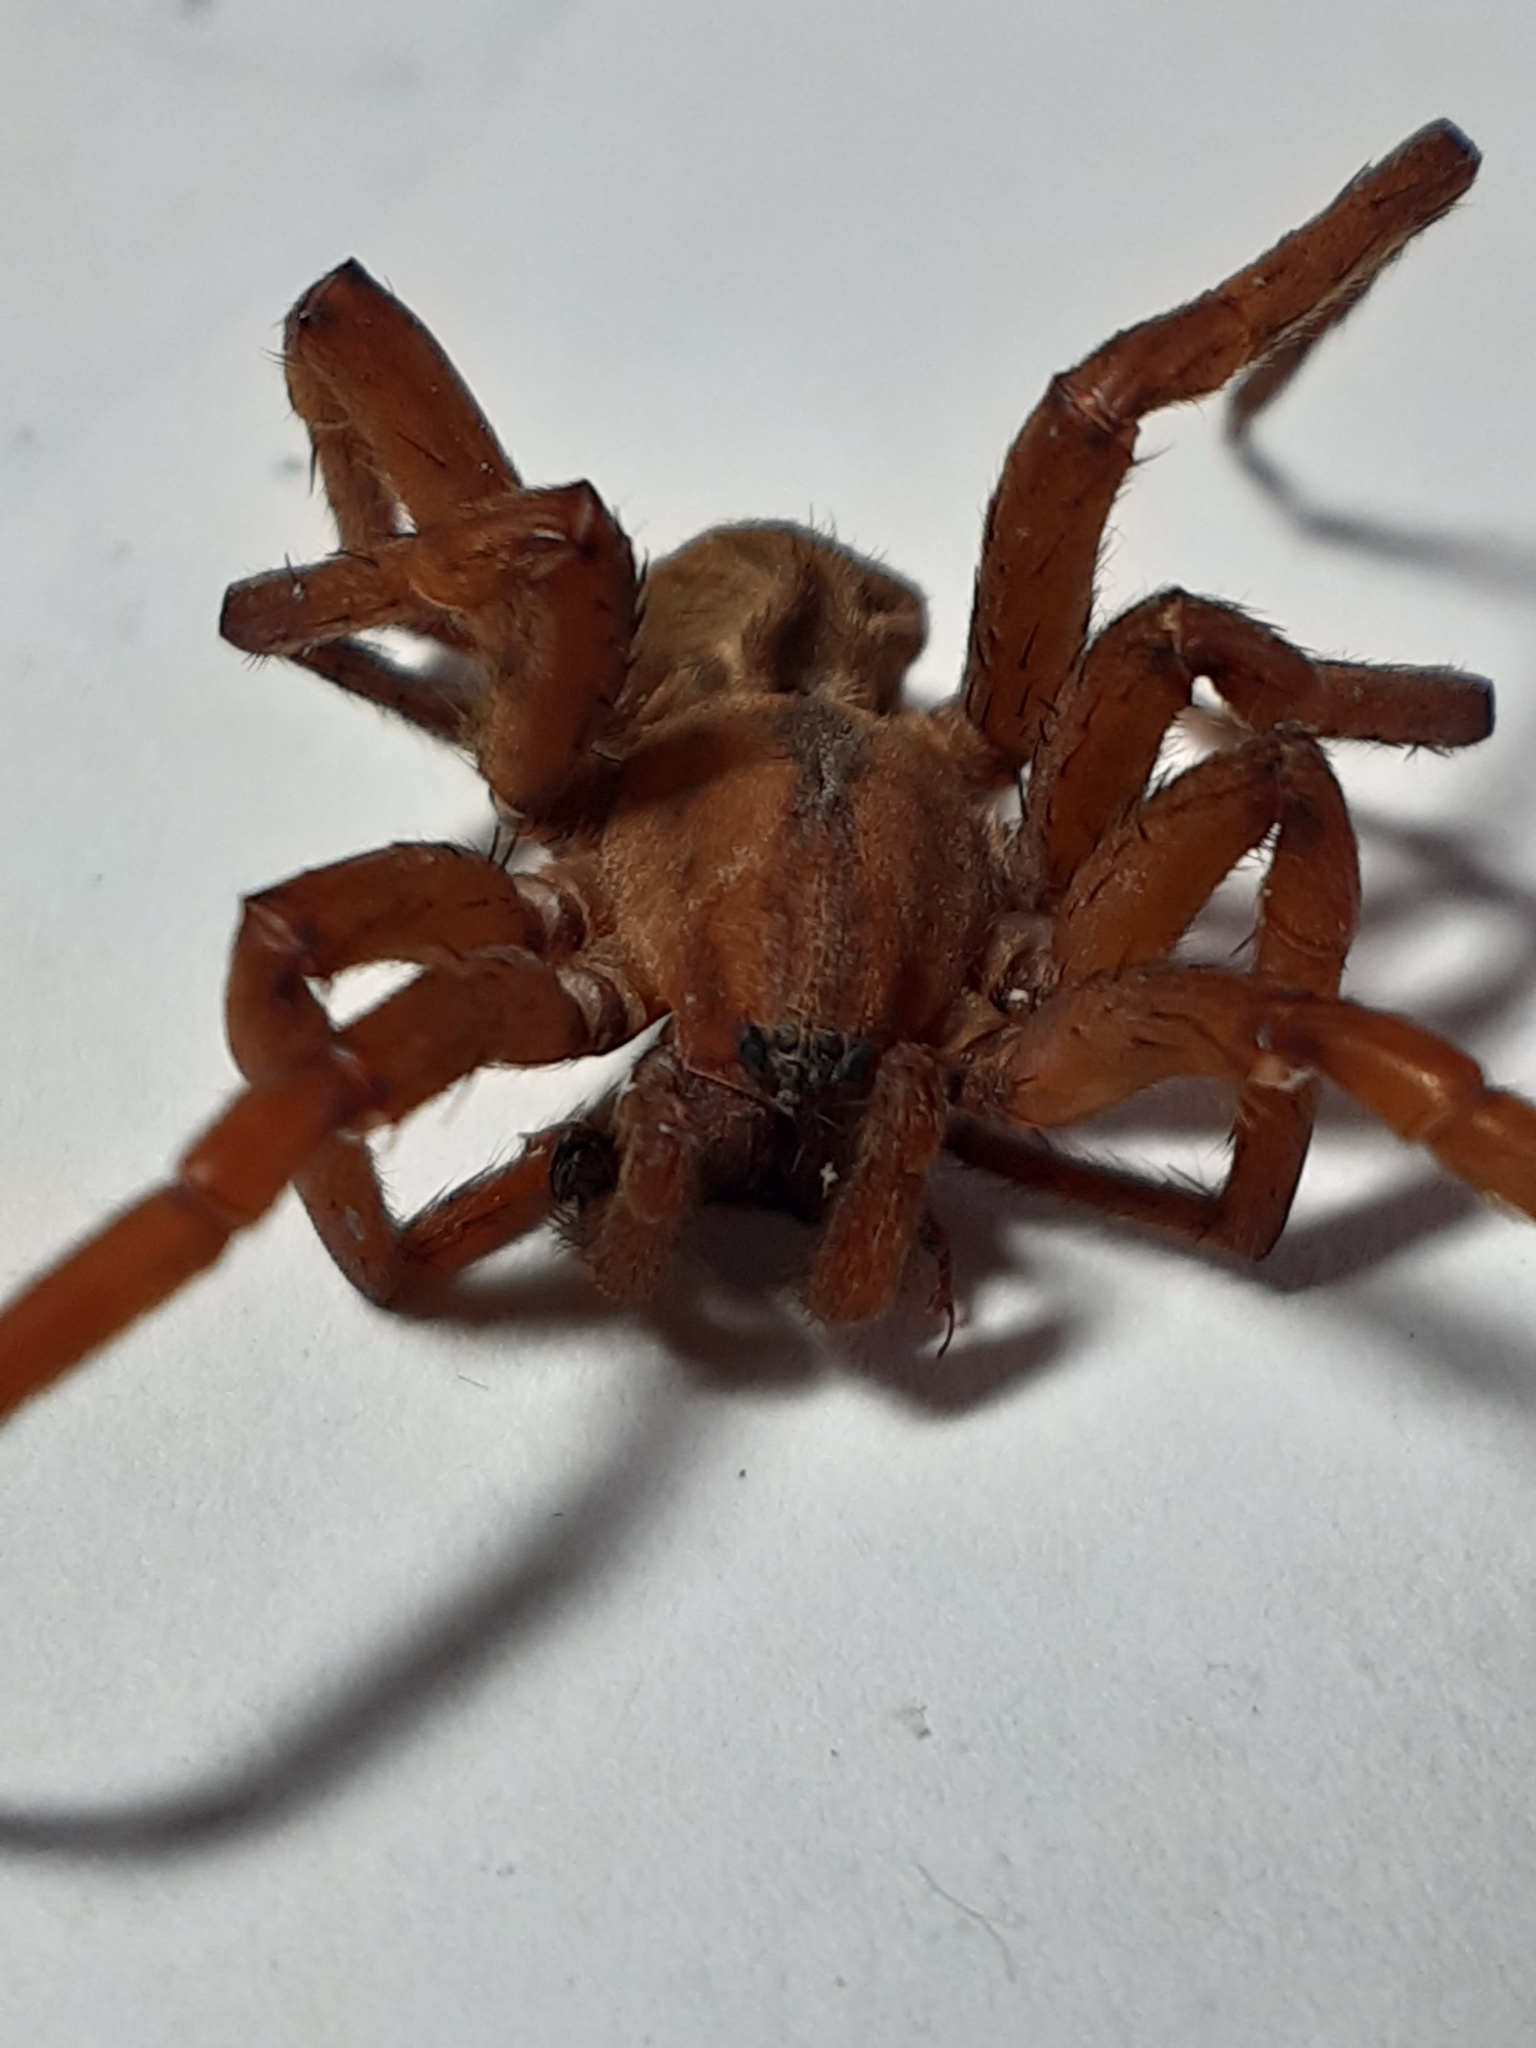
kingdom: Animalia
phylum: Arthropoda
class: Arachnida
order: Araneae
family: Gradungulidae
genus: Gradungula
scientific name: Gradungula sorenseni
